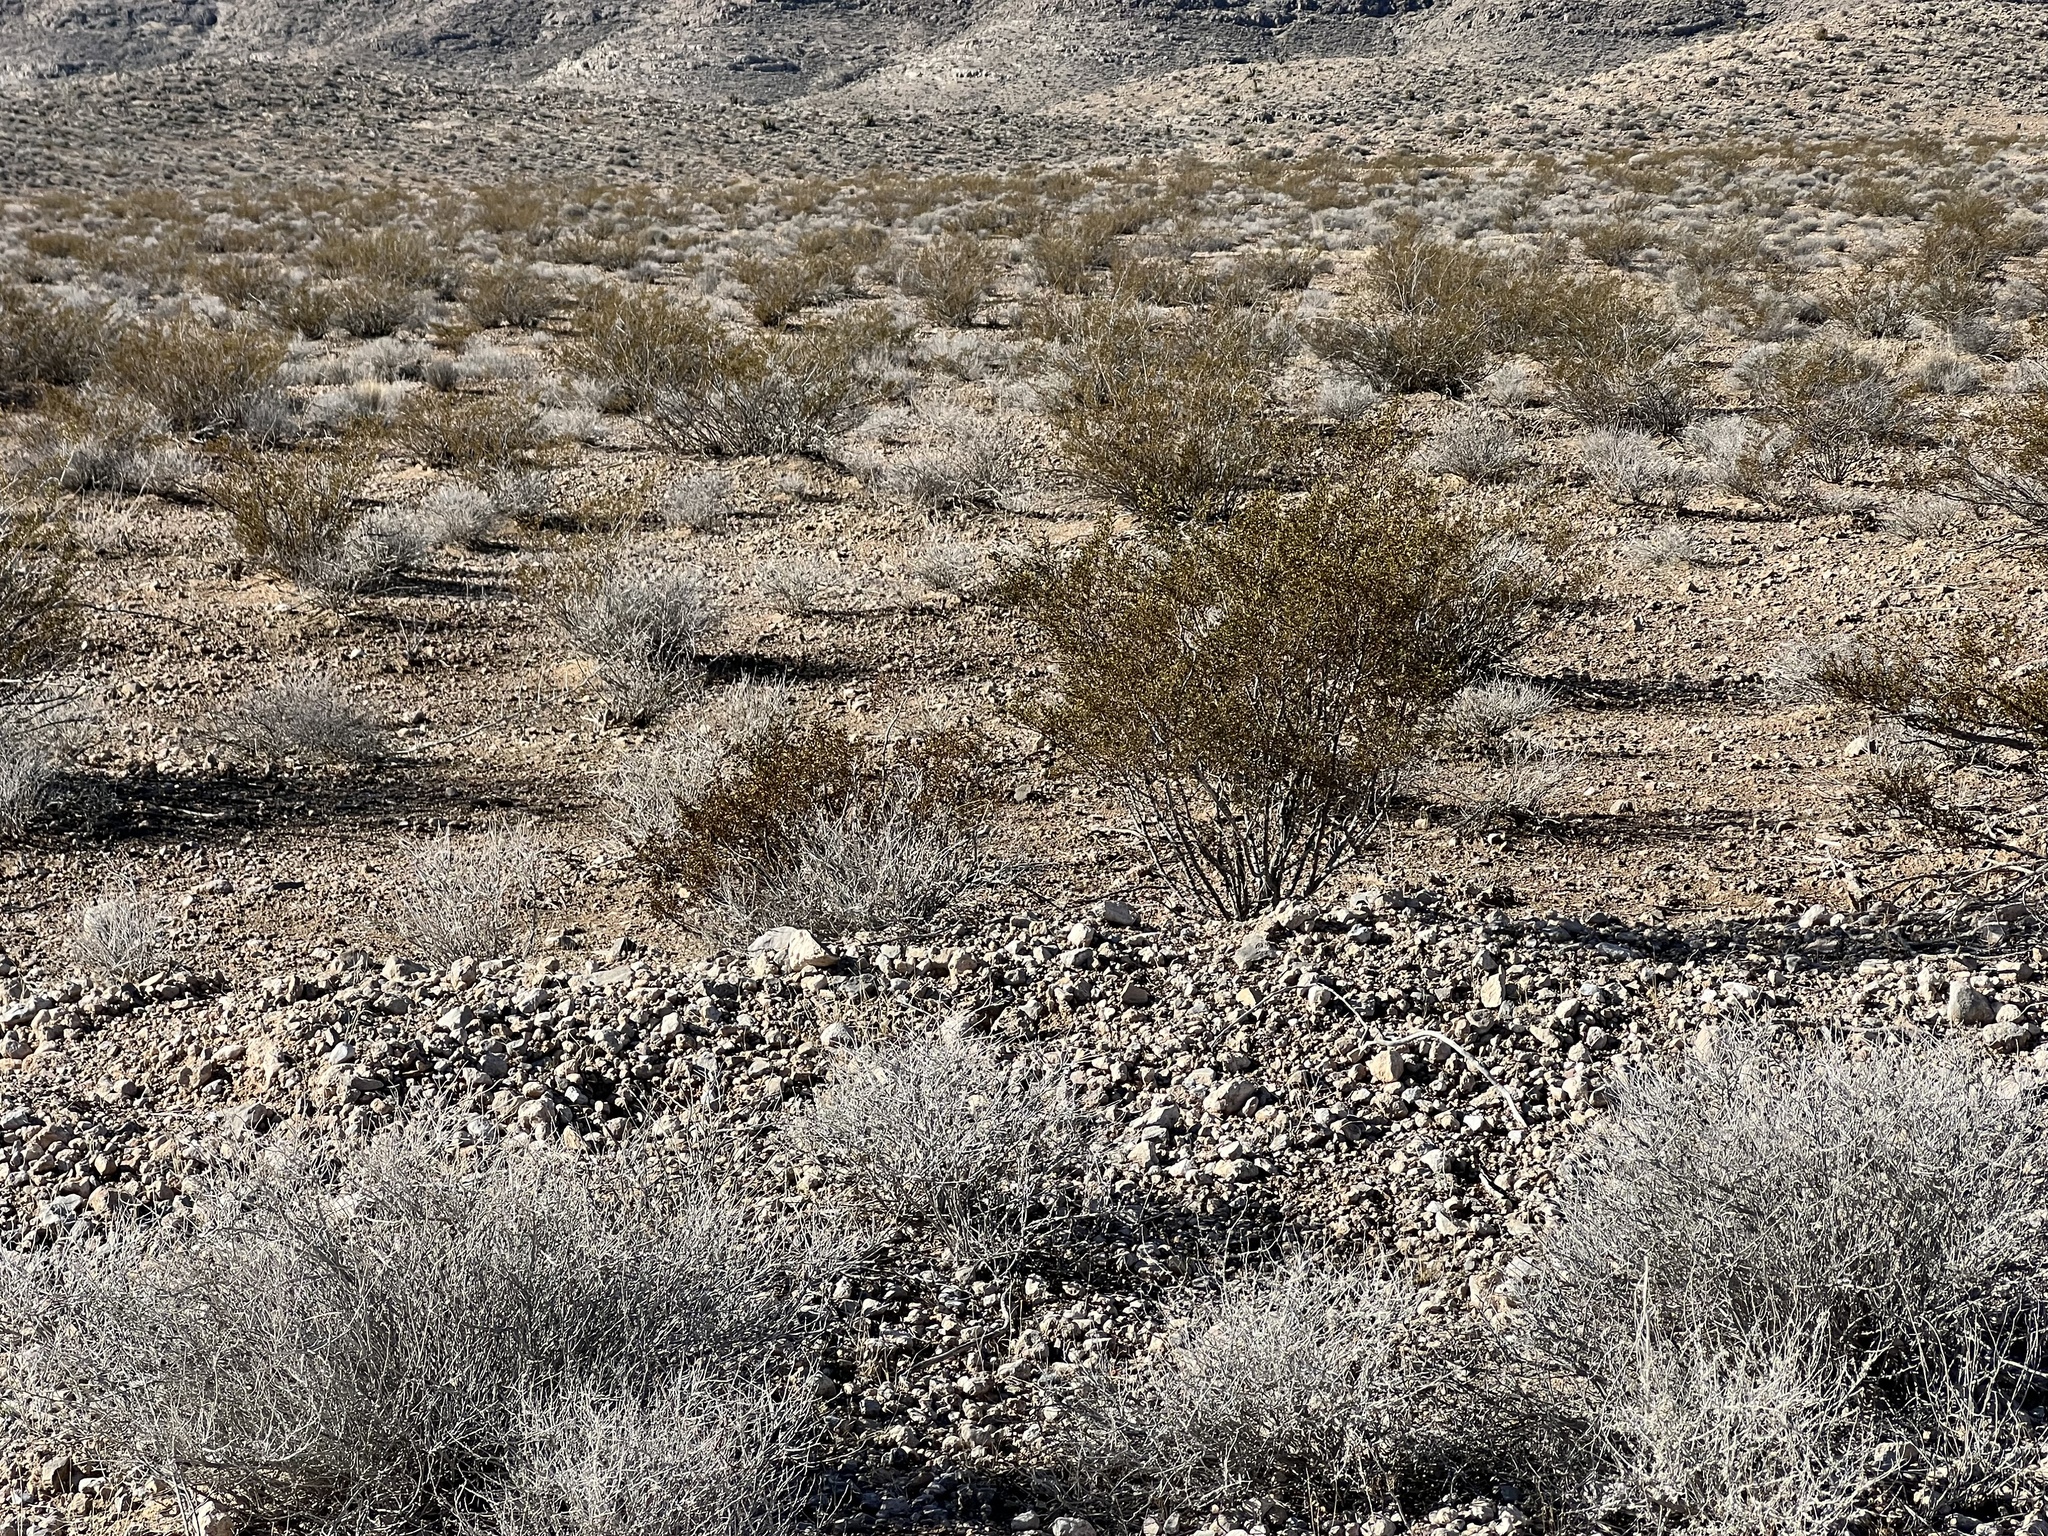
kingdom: Plantae
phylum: Tracheophyta
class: Magnoliopsida
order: Zygophyllales
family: Zygophyllaceae
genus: Larrea
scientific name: Larrea tridentata
